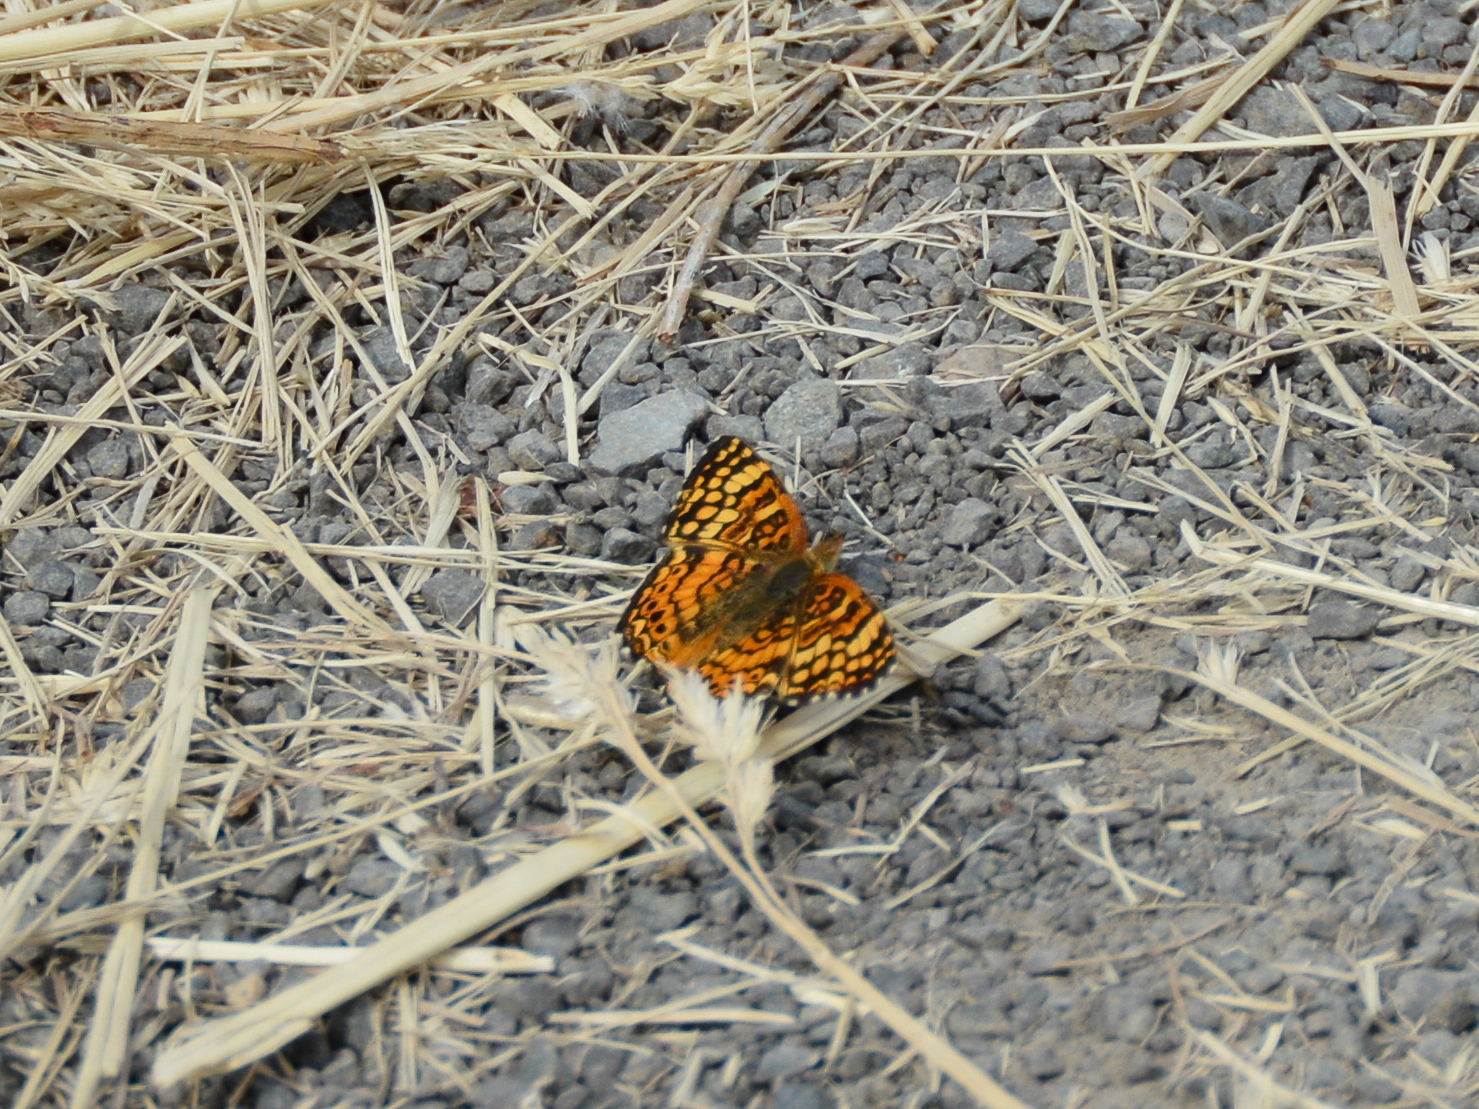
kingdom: Animalia
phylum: Arthropoda
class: Insecta
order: Lepidoptera
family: Nymphalidae
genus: Eresia
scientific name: Eresia aveyrona
